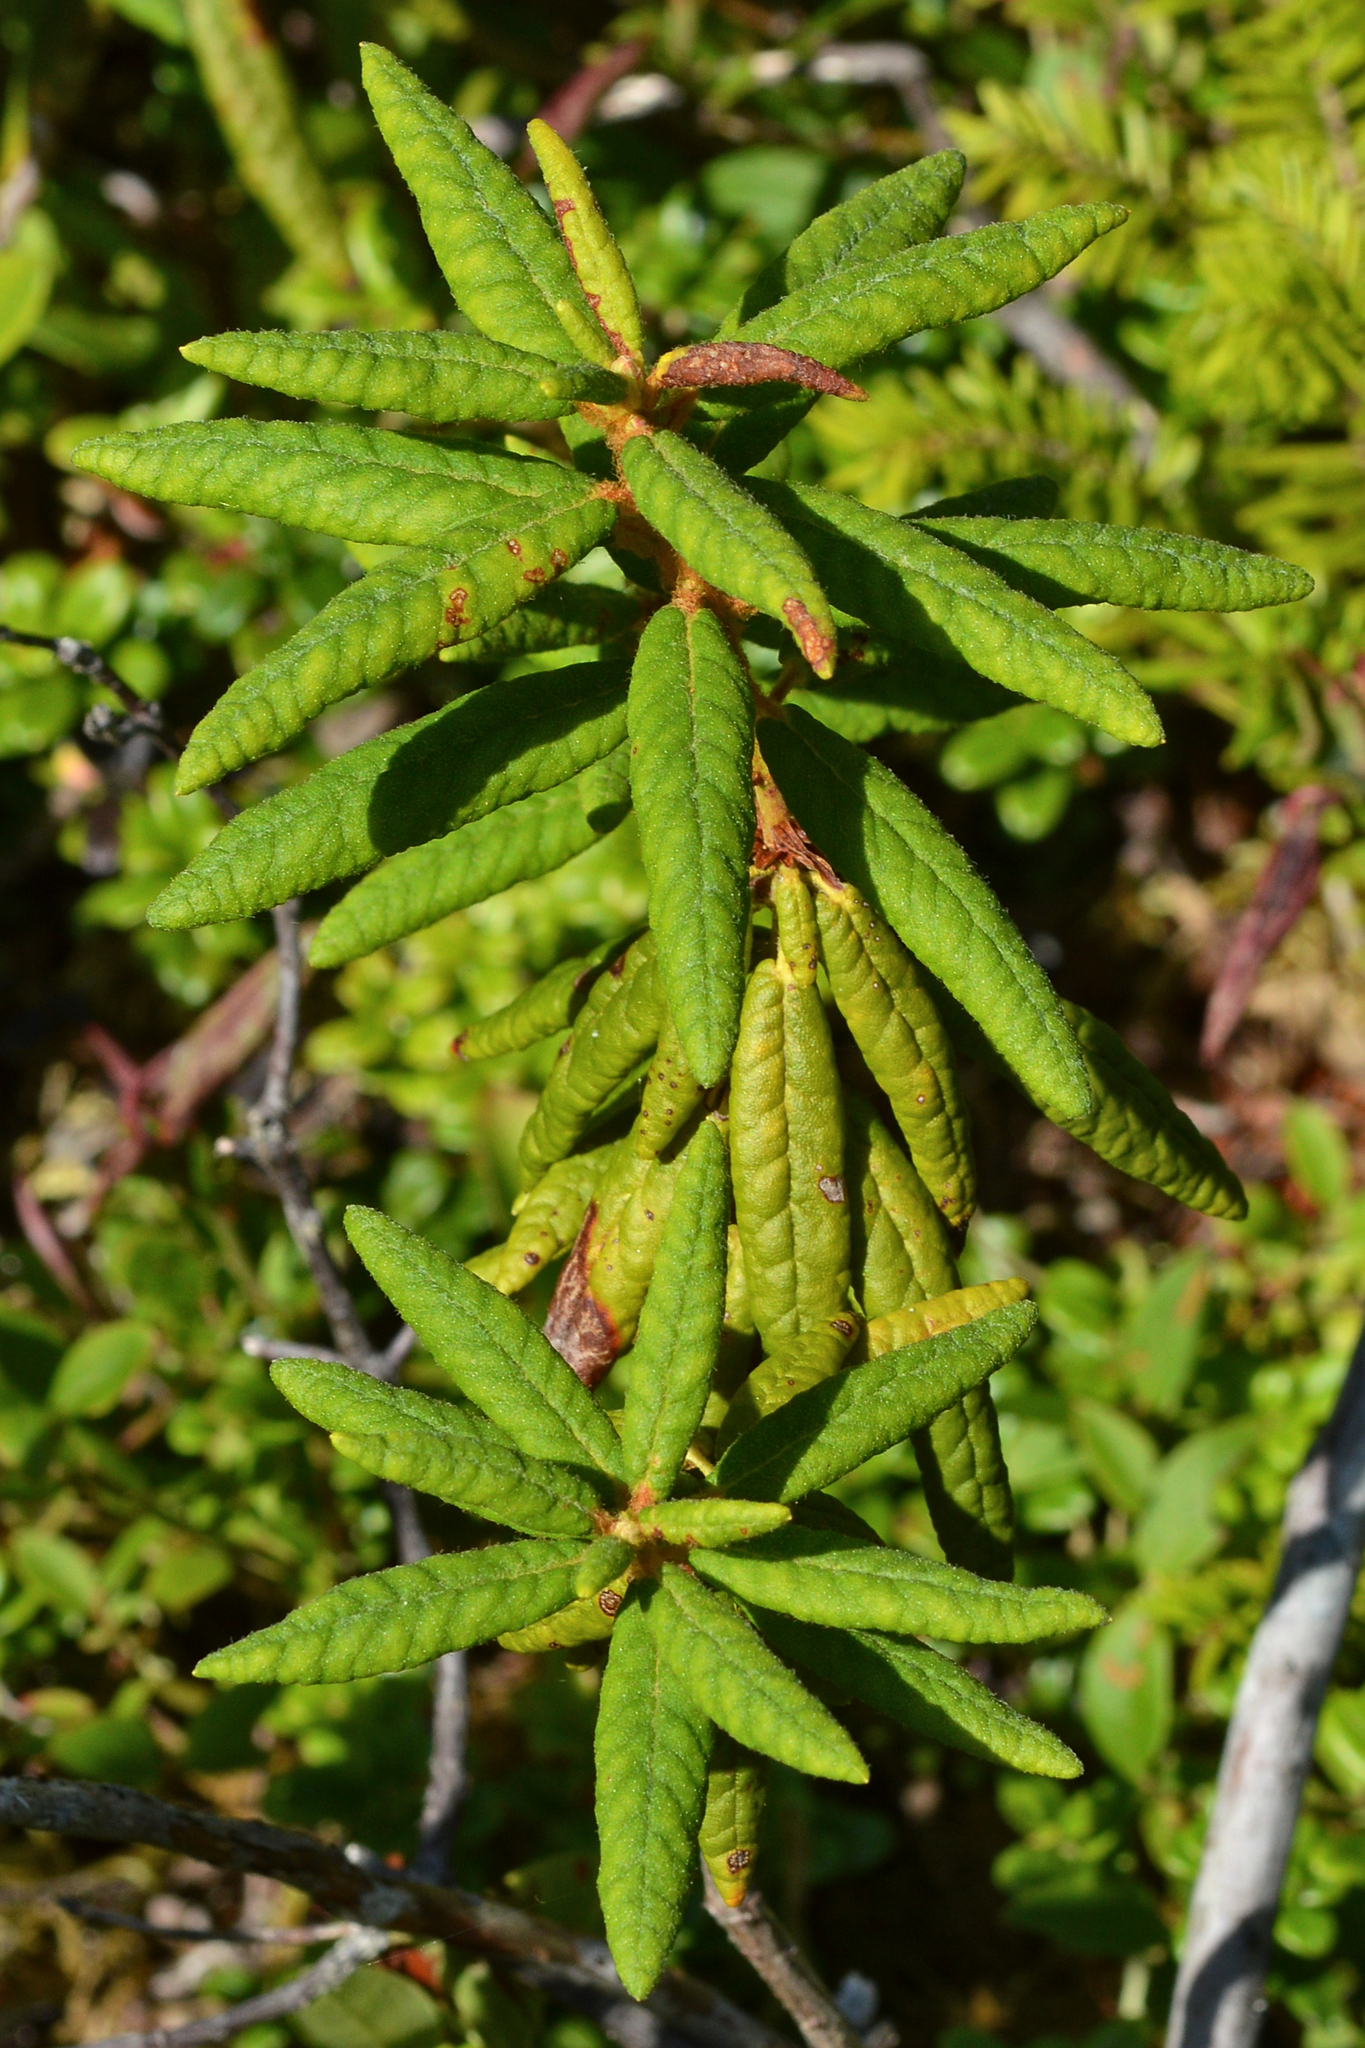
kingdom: Plantae
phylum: Tracheophyta
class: Magnoliopsida
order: Ericales
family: Ericaceae
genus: Rhododendron
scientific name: Rhododendron groenlandicum
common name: Bog labrador tea
